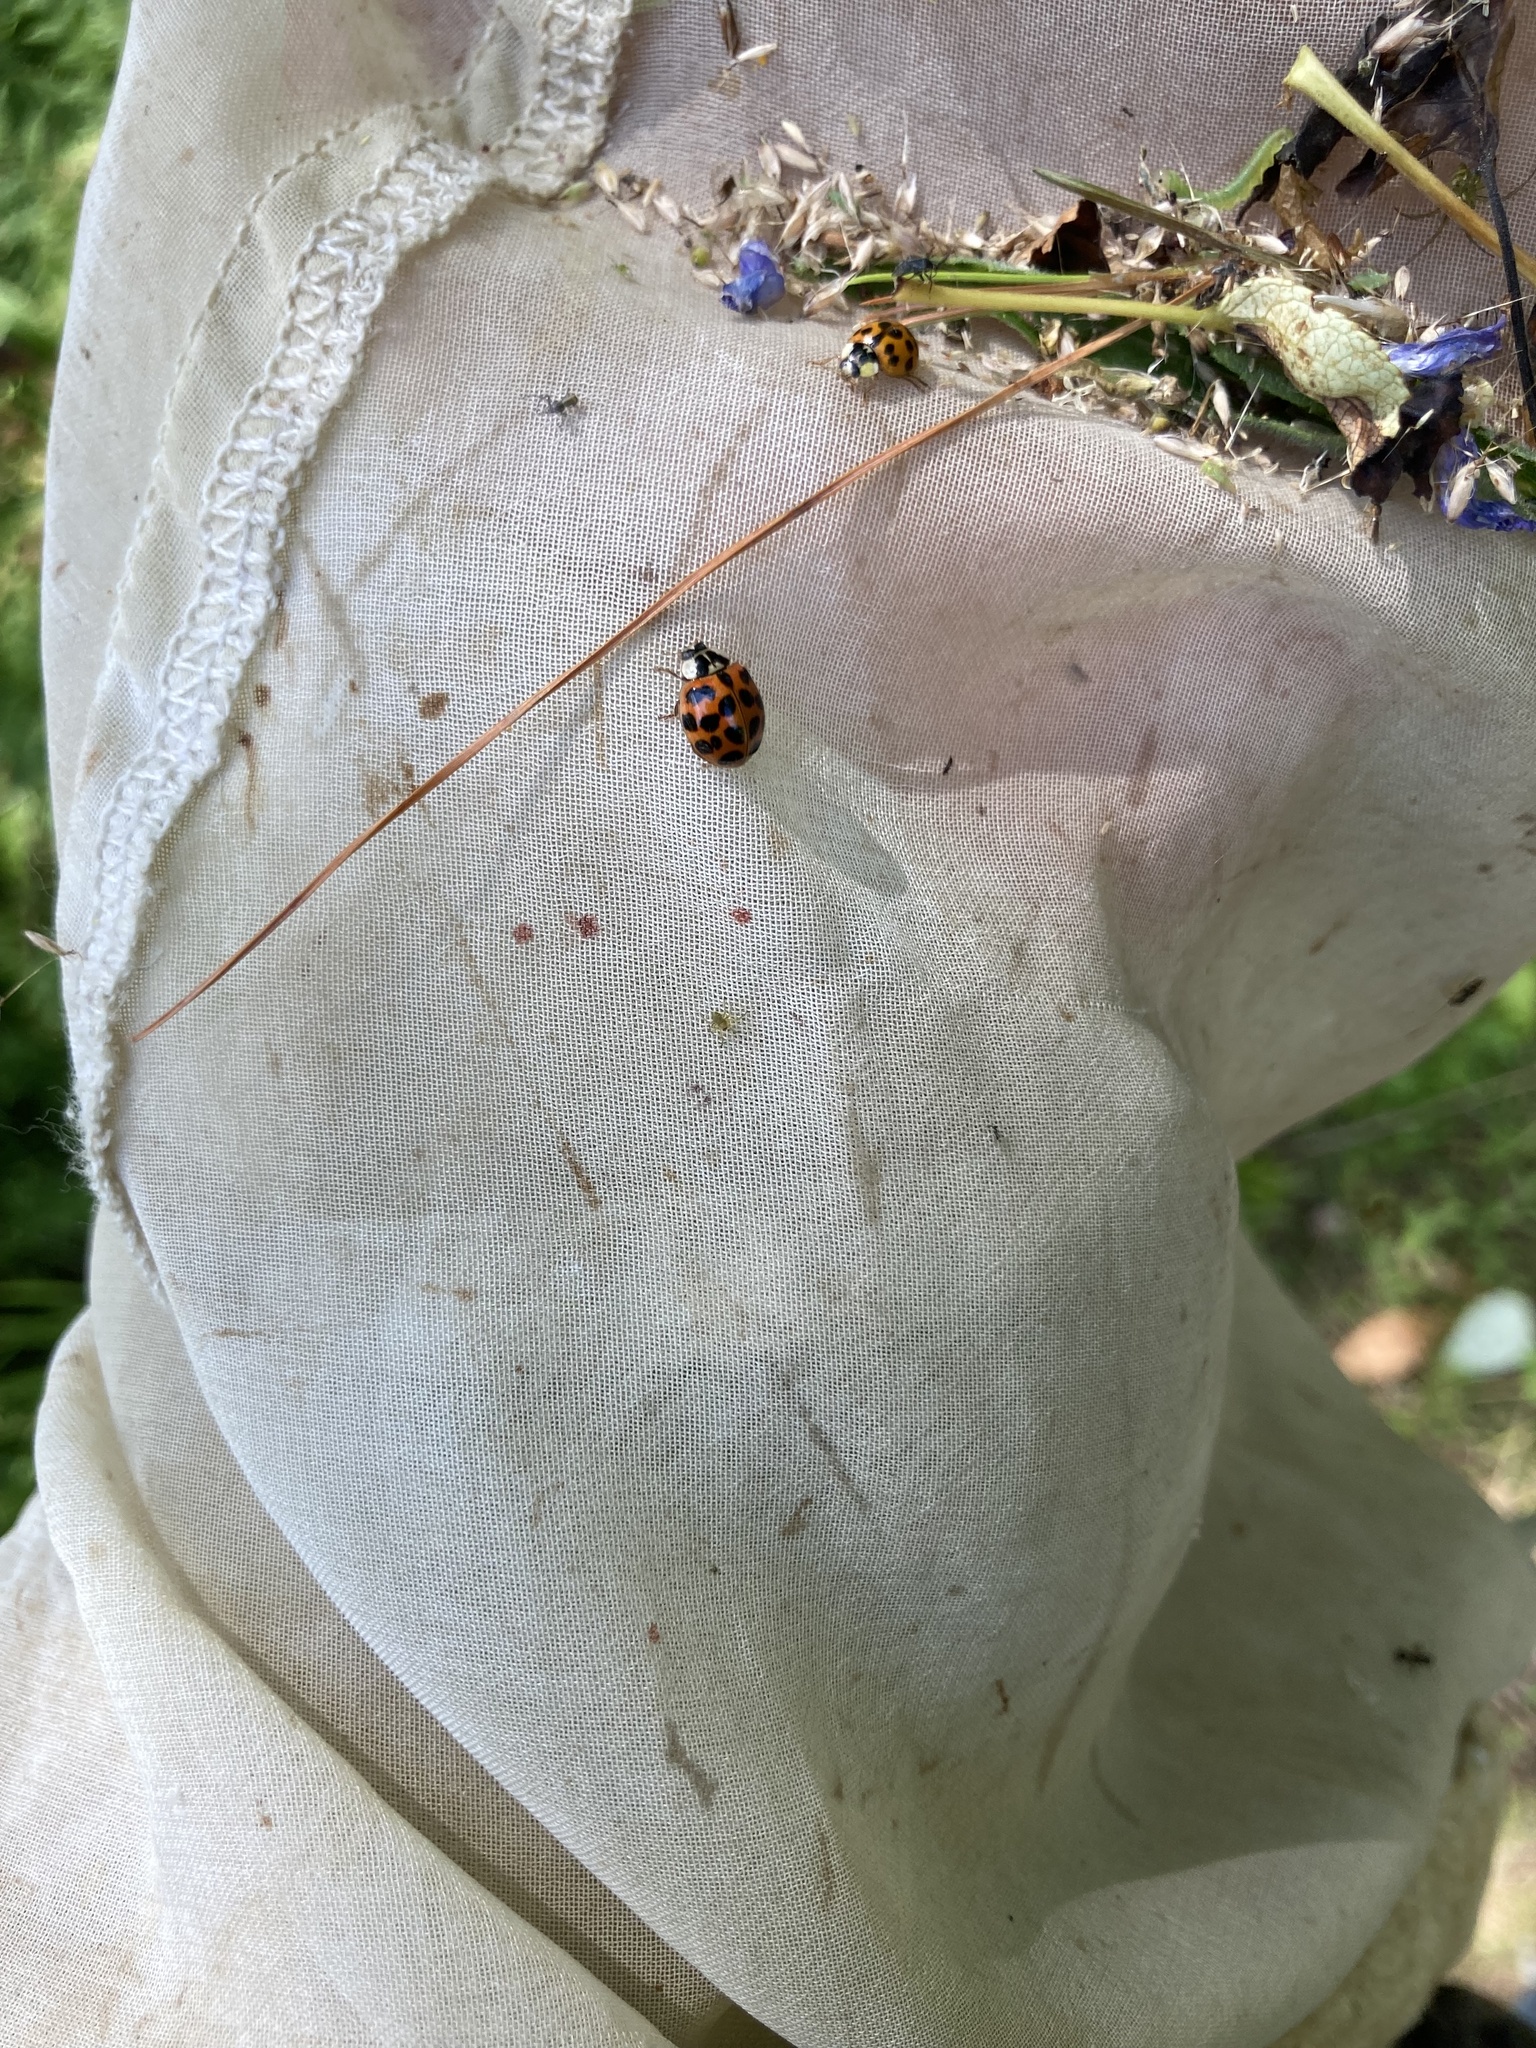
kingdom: Animalia
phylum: Arthropoda
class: Insecta
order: Coleoptera
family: Coccinellidae
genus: Harmonia
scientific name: Harmonia axyridis
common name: Harlequin ladybird
